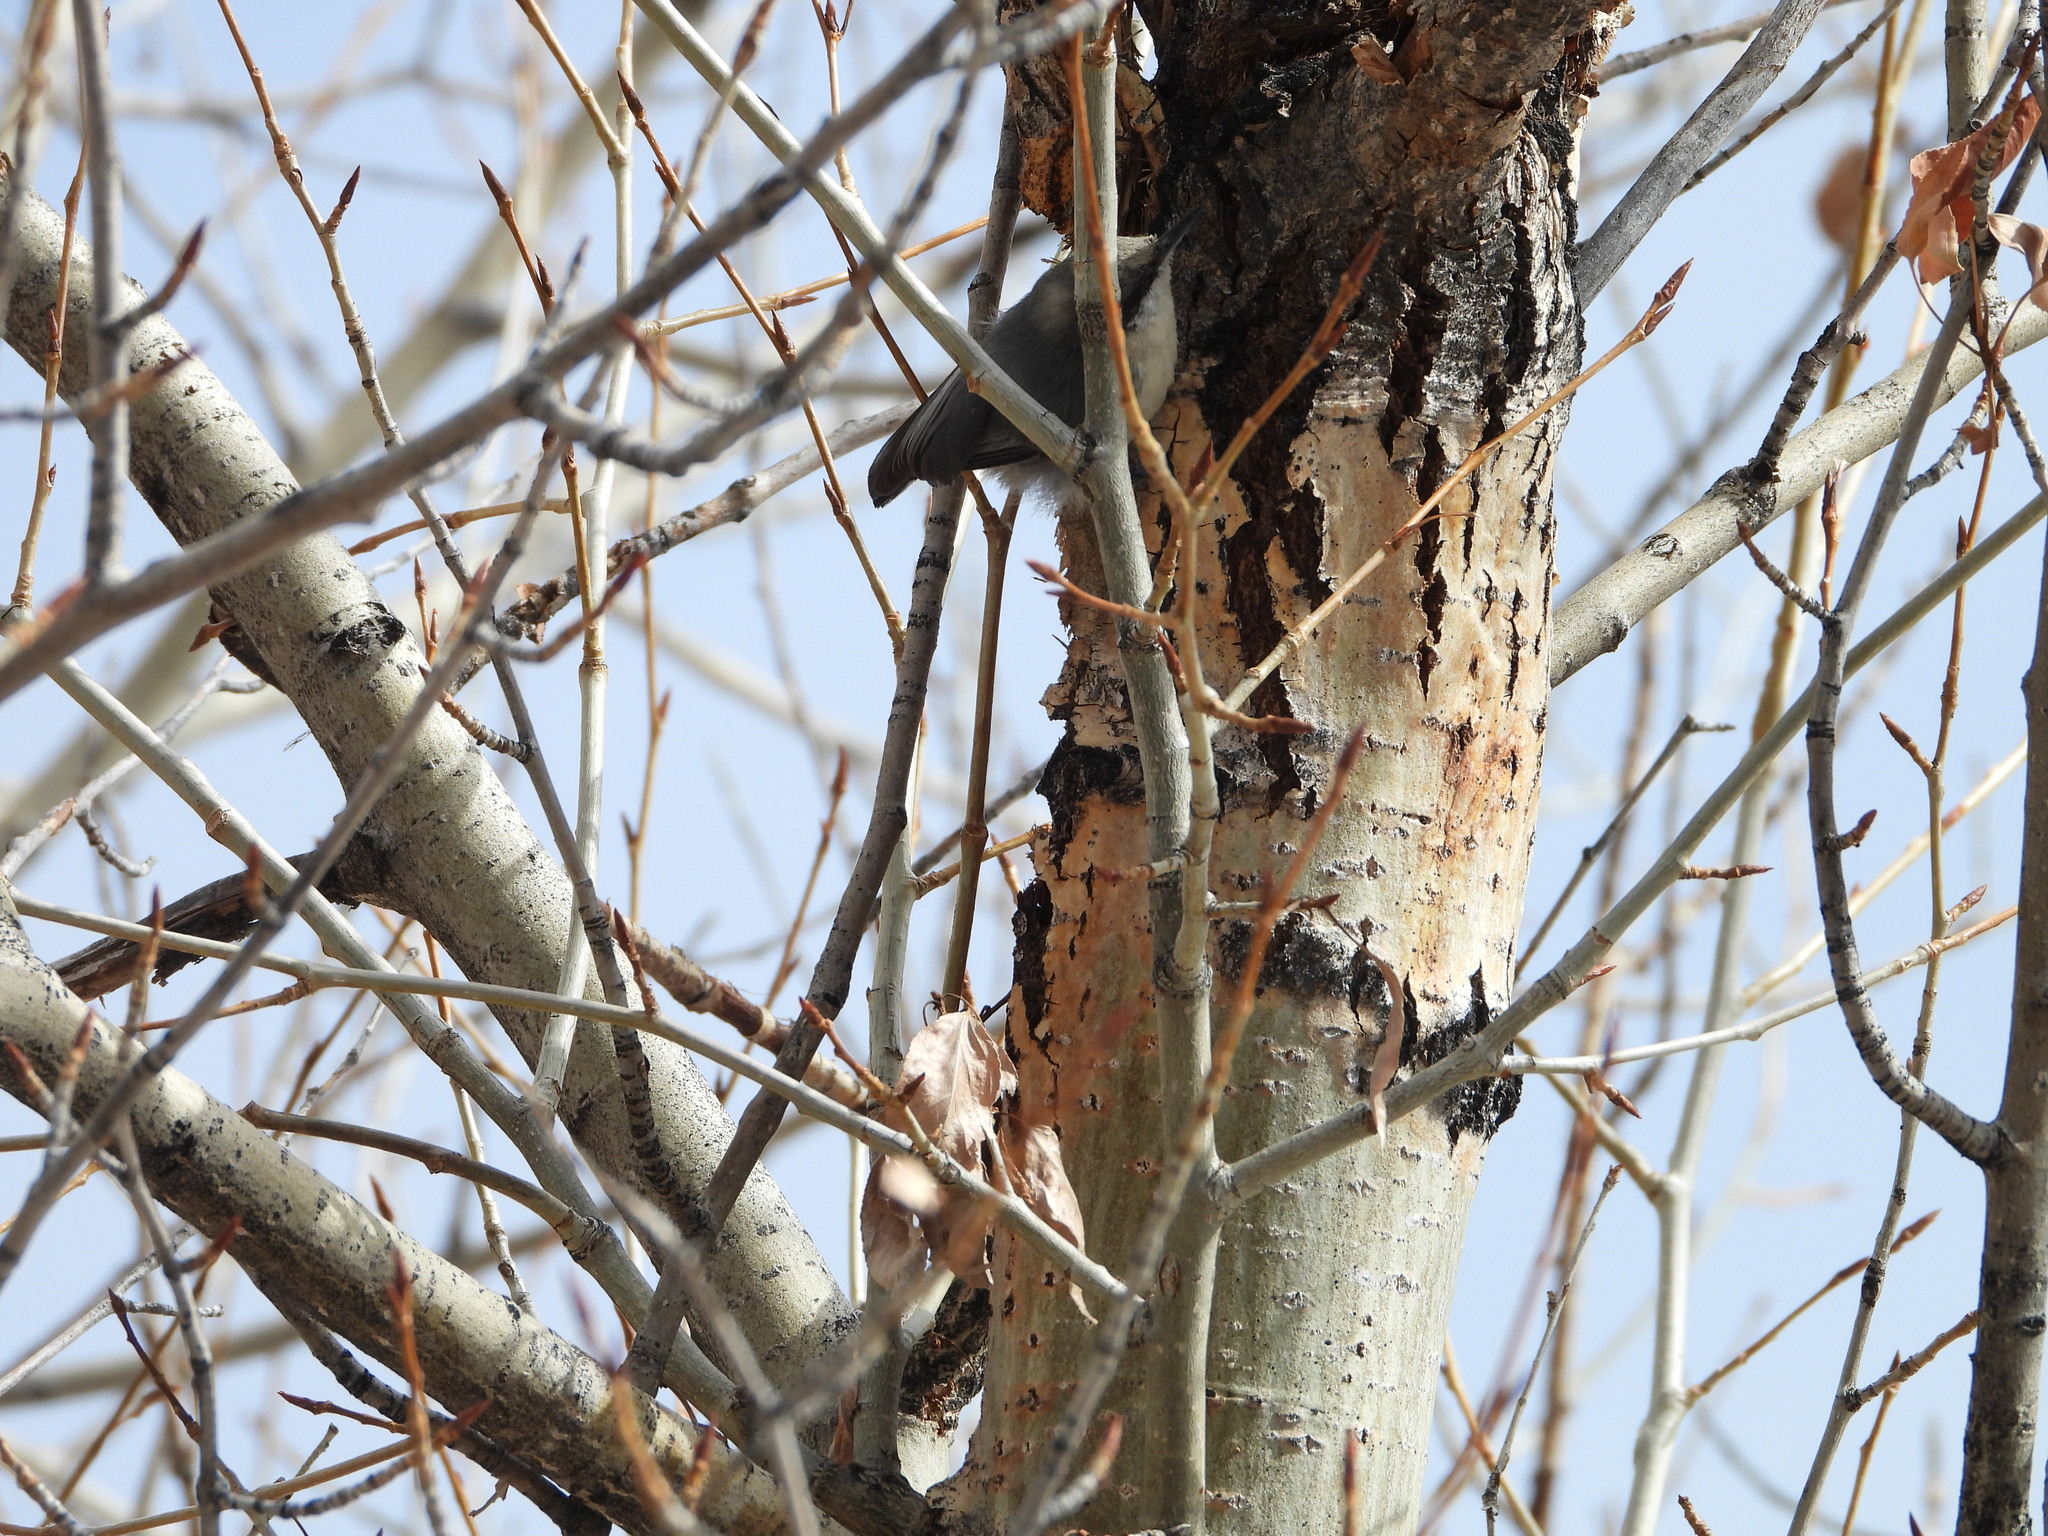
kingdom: Animalia
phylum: Chordata
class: Aves
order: Passeriformes
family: Sittidae
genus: Sitta
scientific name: Sitta pygmaea
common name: Pygmy nuthatch
